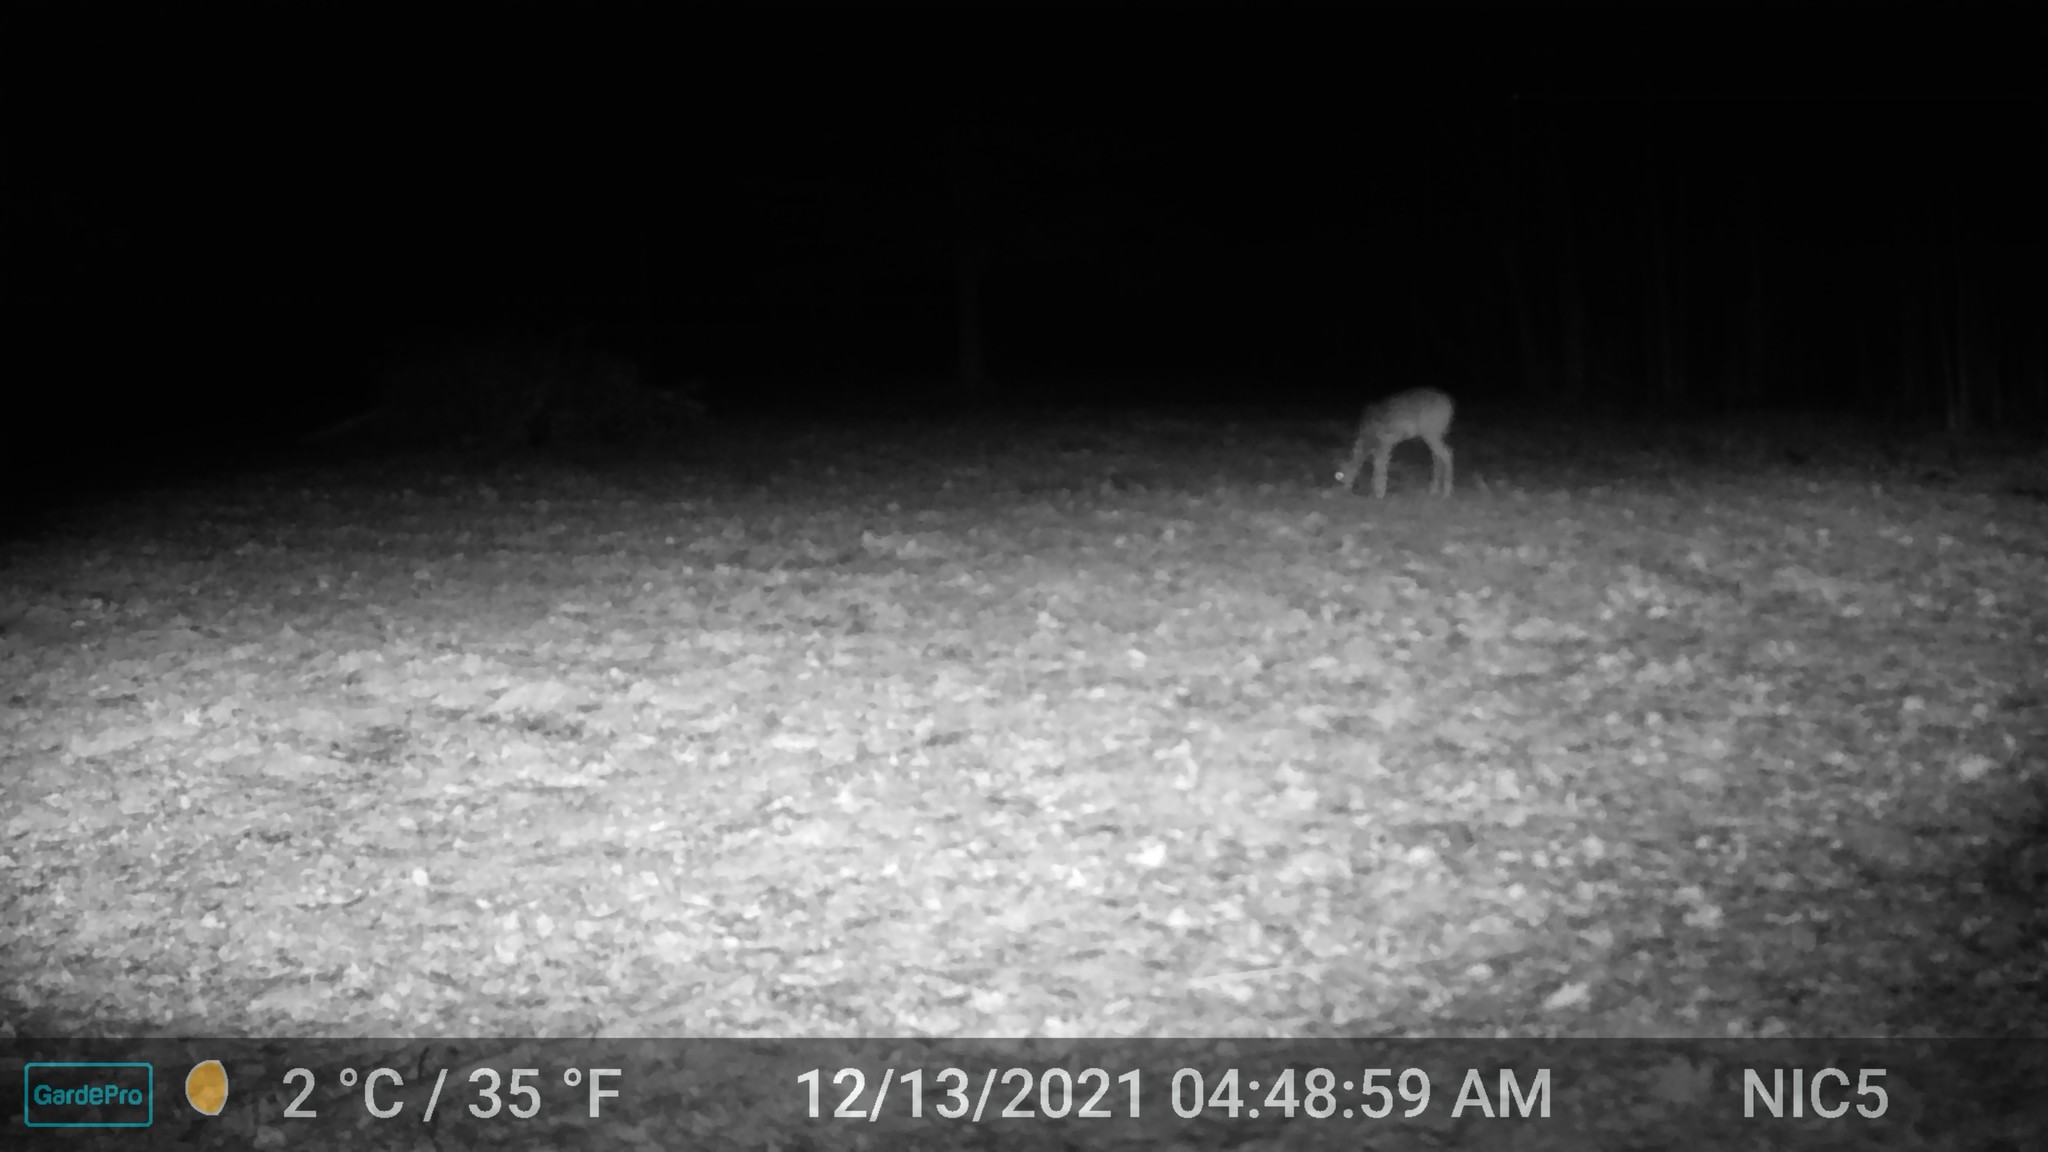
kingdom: Animalia
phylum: Chordata
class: Mammalia
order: Artiodactyla
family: Cervidae
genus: Odocoileus
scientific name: Odocoileus virginianus
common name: White-tailed deer
